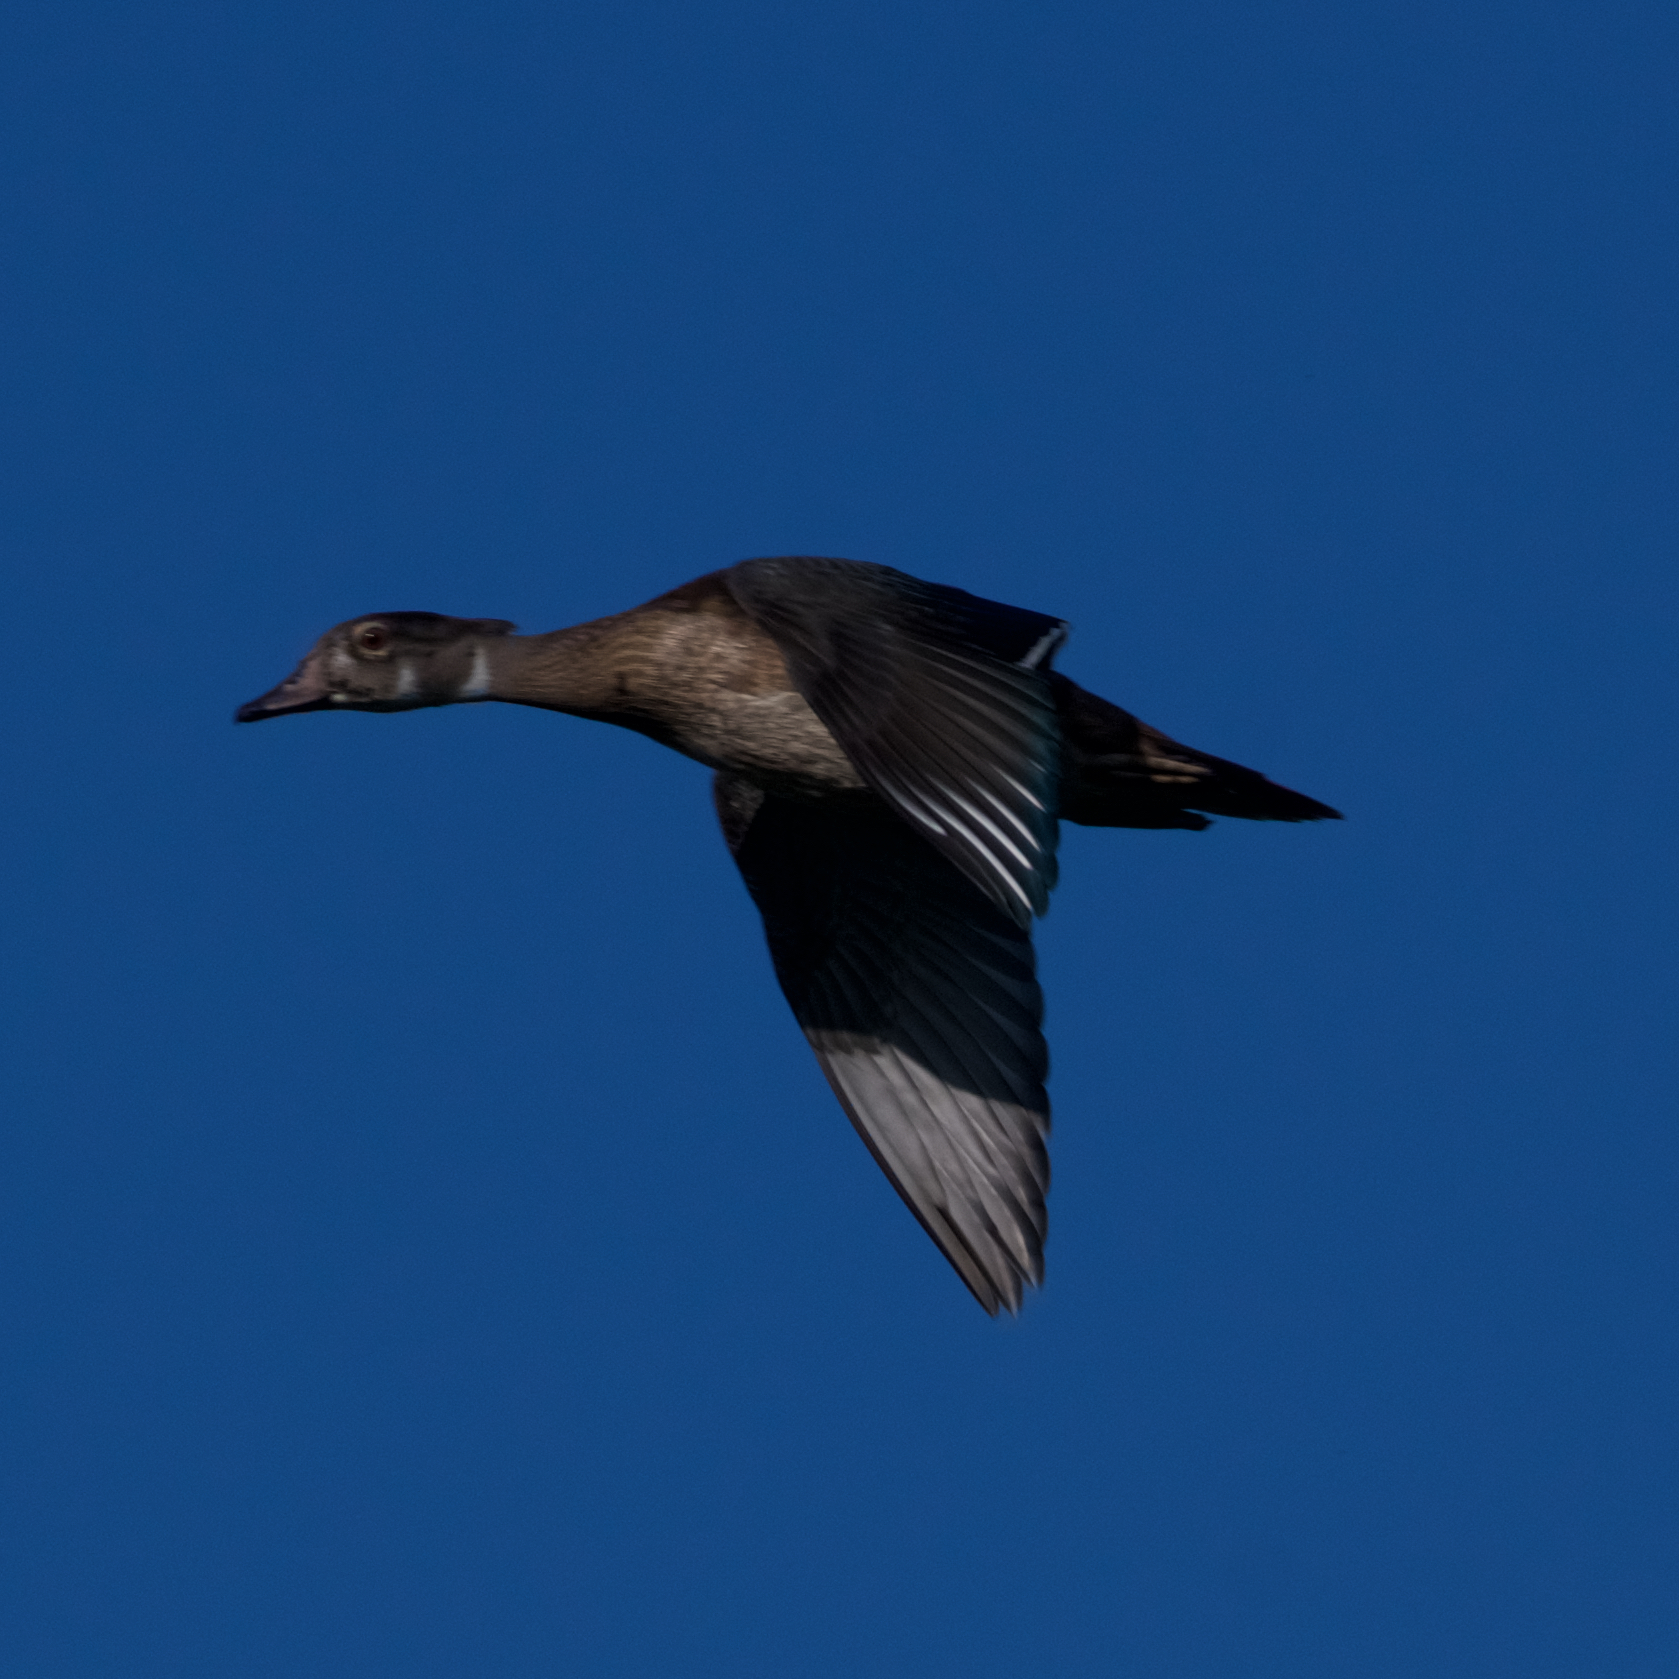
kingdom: Animalia
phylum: Chordata
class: Aves
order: Anseriformes
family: Anatidae
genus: Aix
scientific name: Aix sponsa
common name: Wood duck
